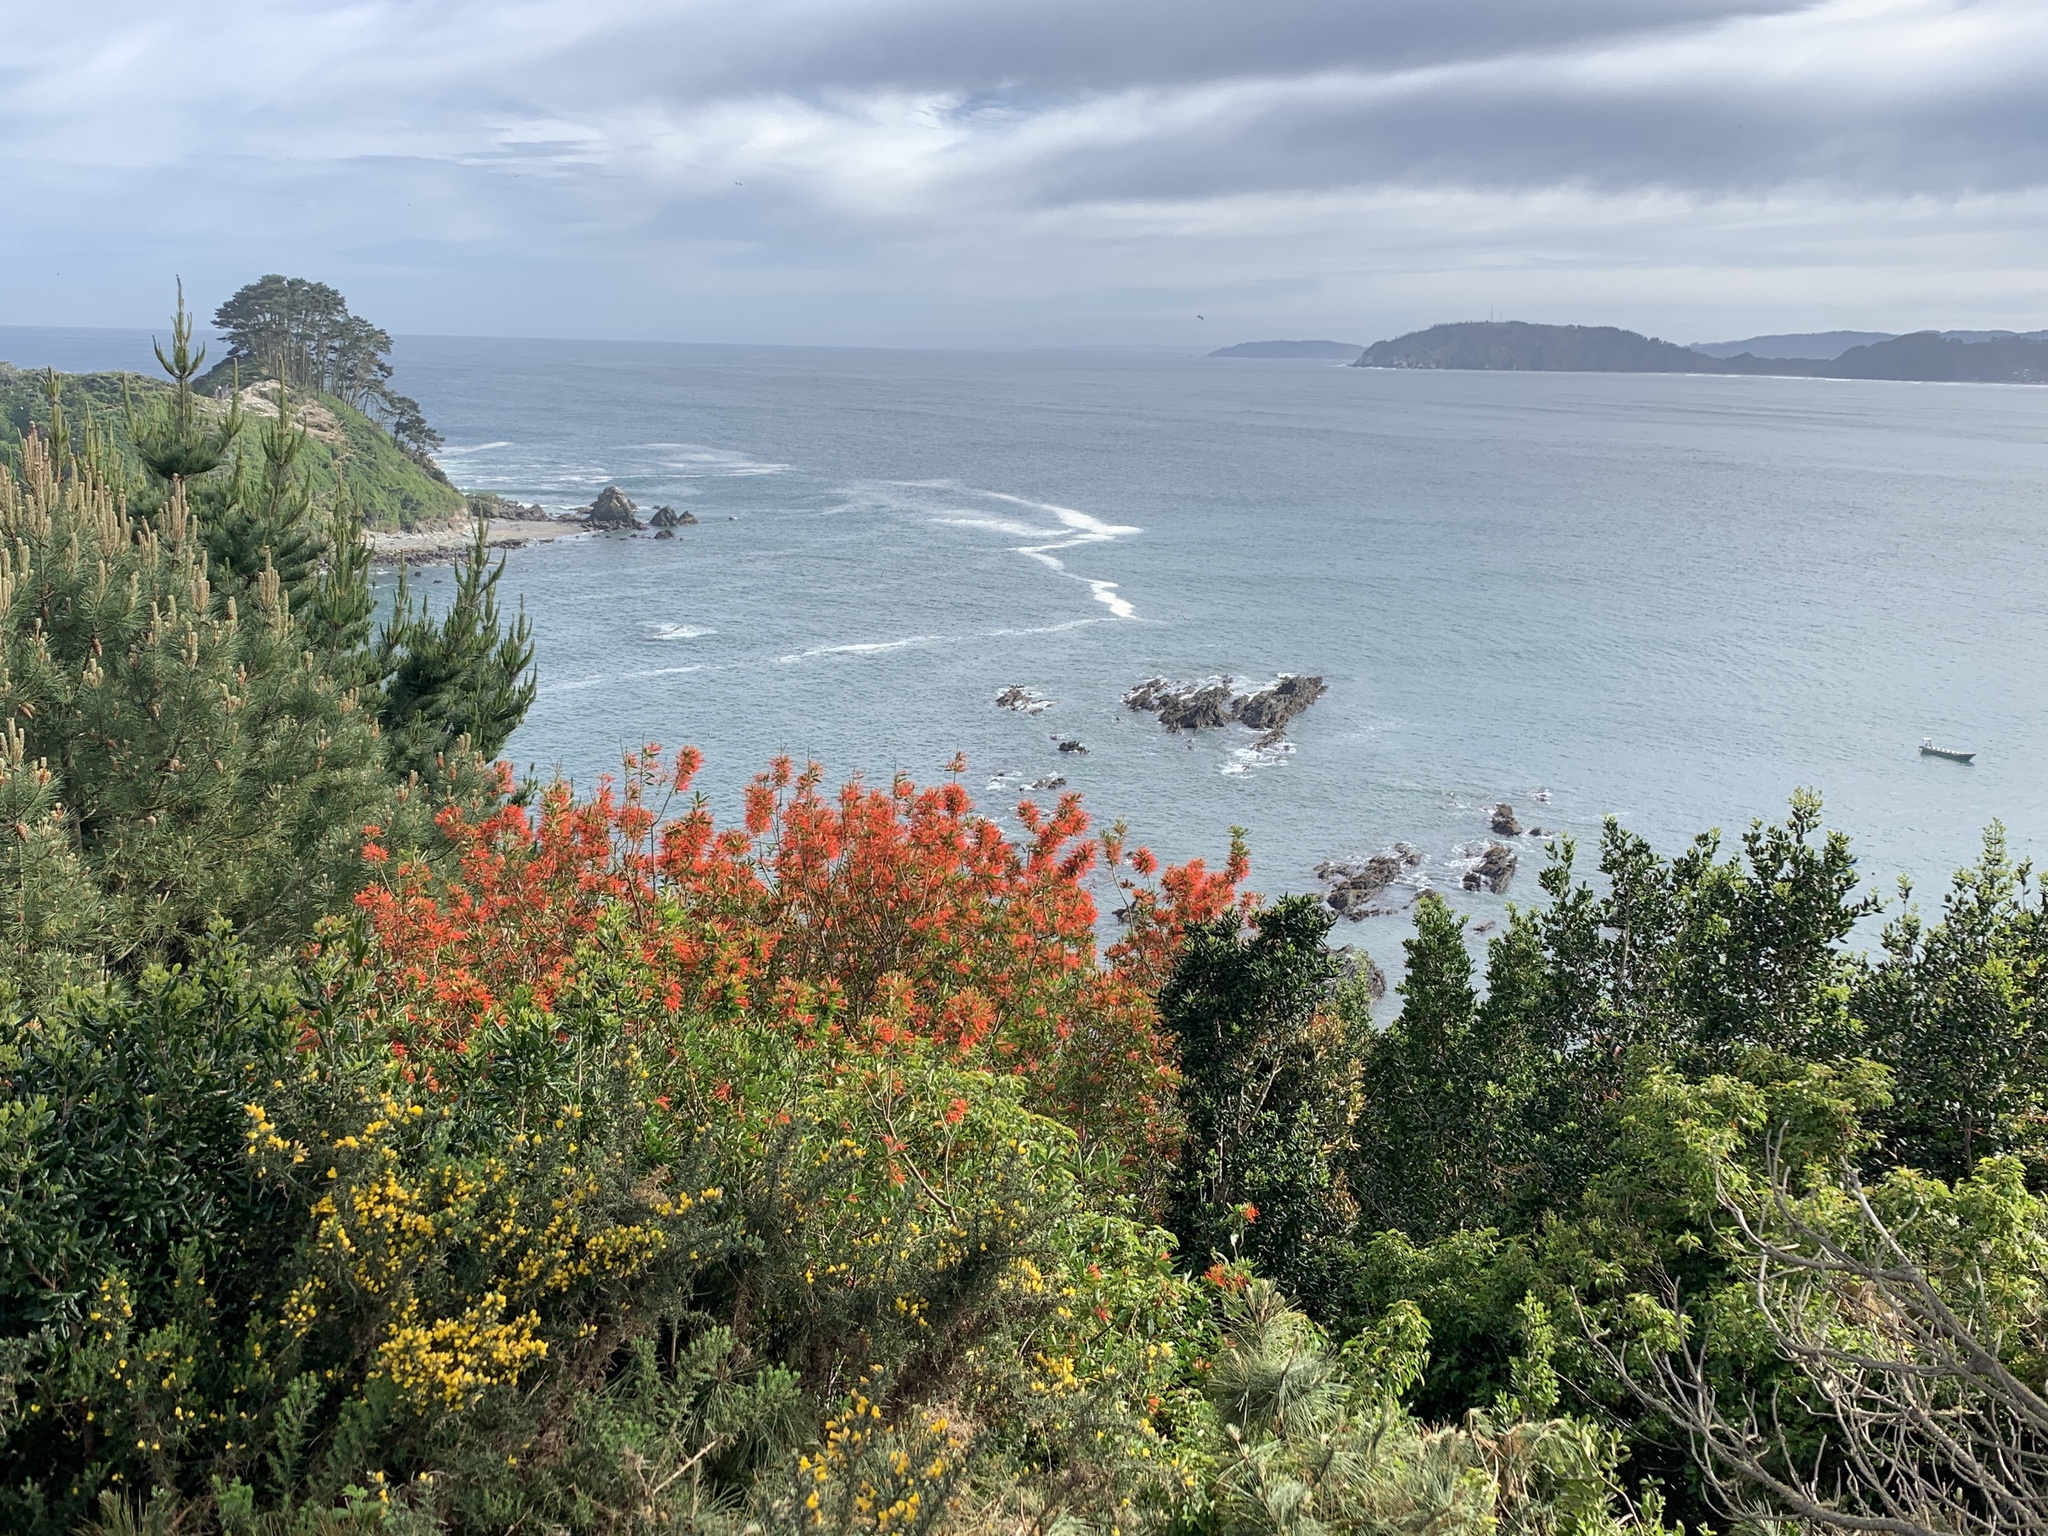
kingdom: Plantae
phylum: Tracheophyta
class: Magnoliopsida
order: Proteales
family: Proteaceae
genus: Embothrium
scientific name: Embothrium coccineum
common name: Chilean firebush
